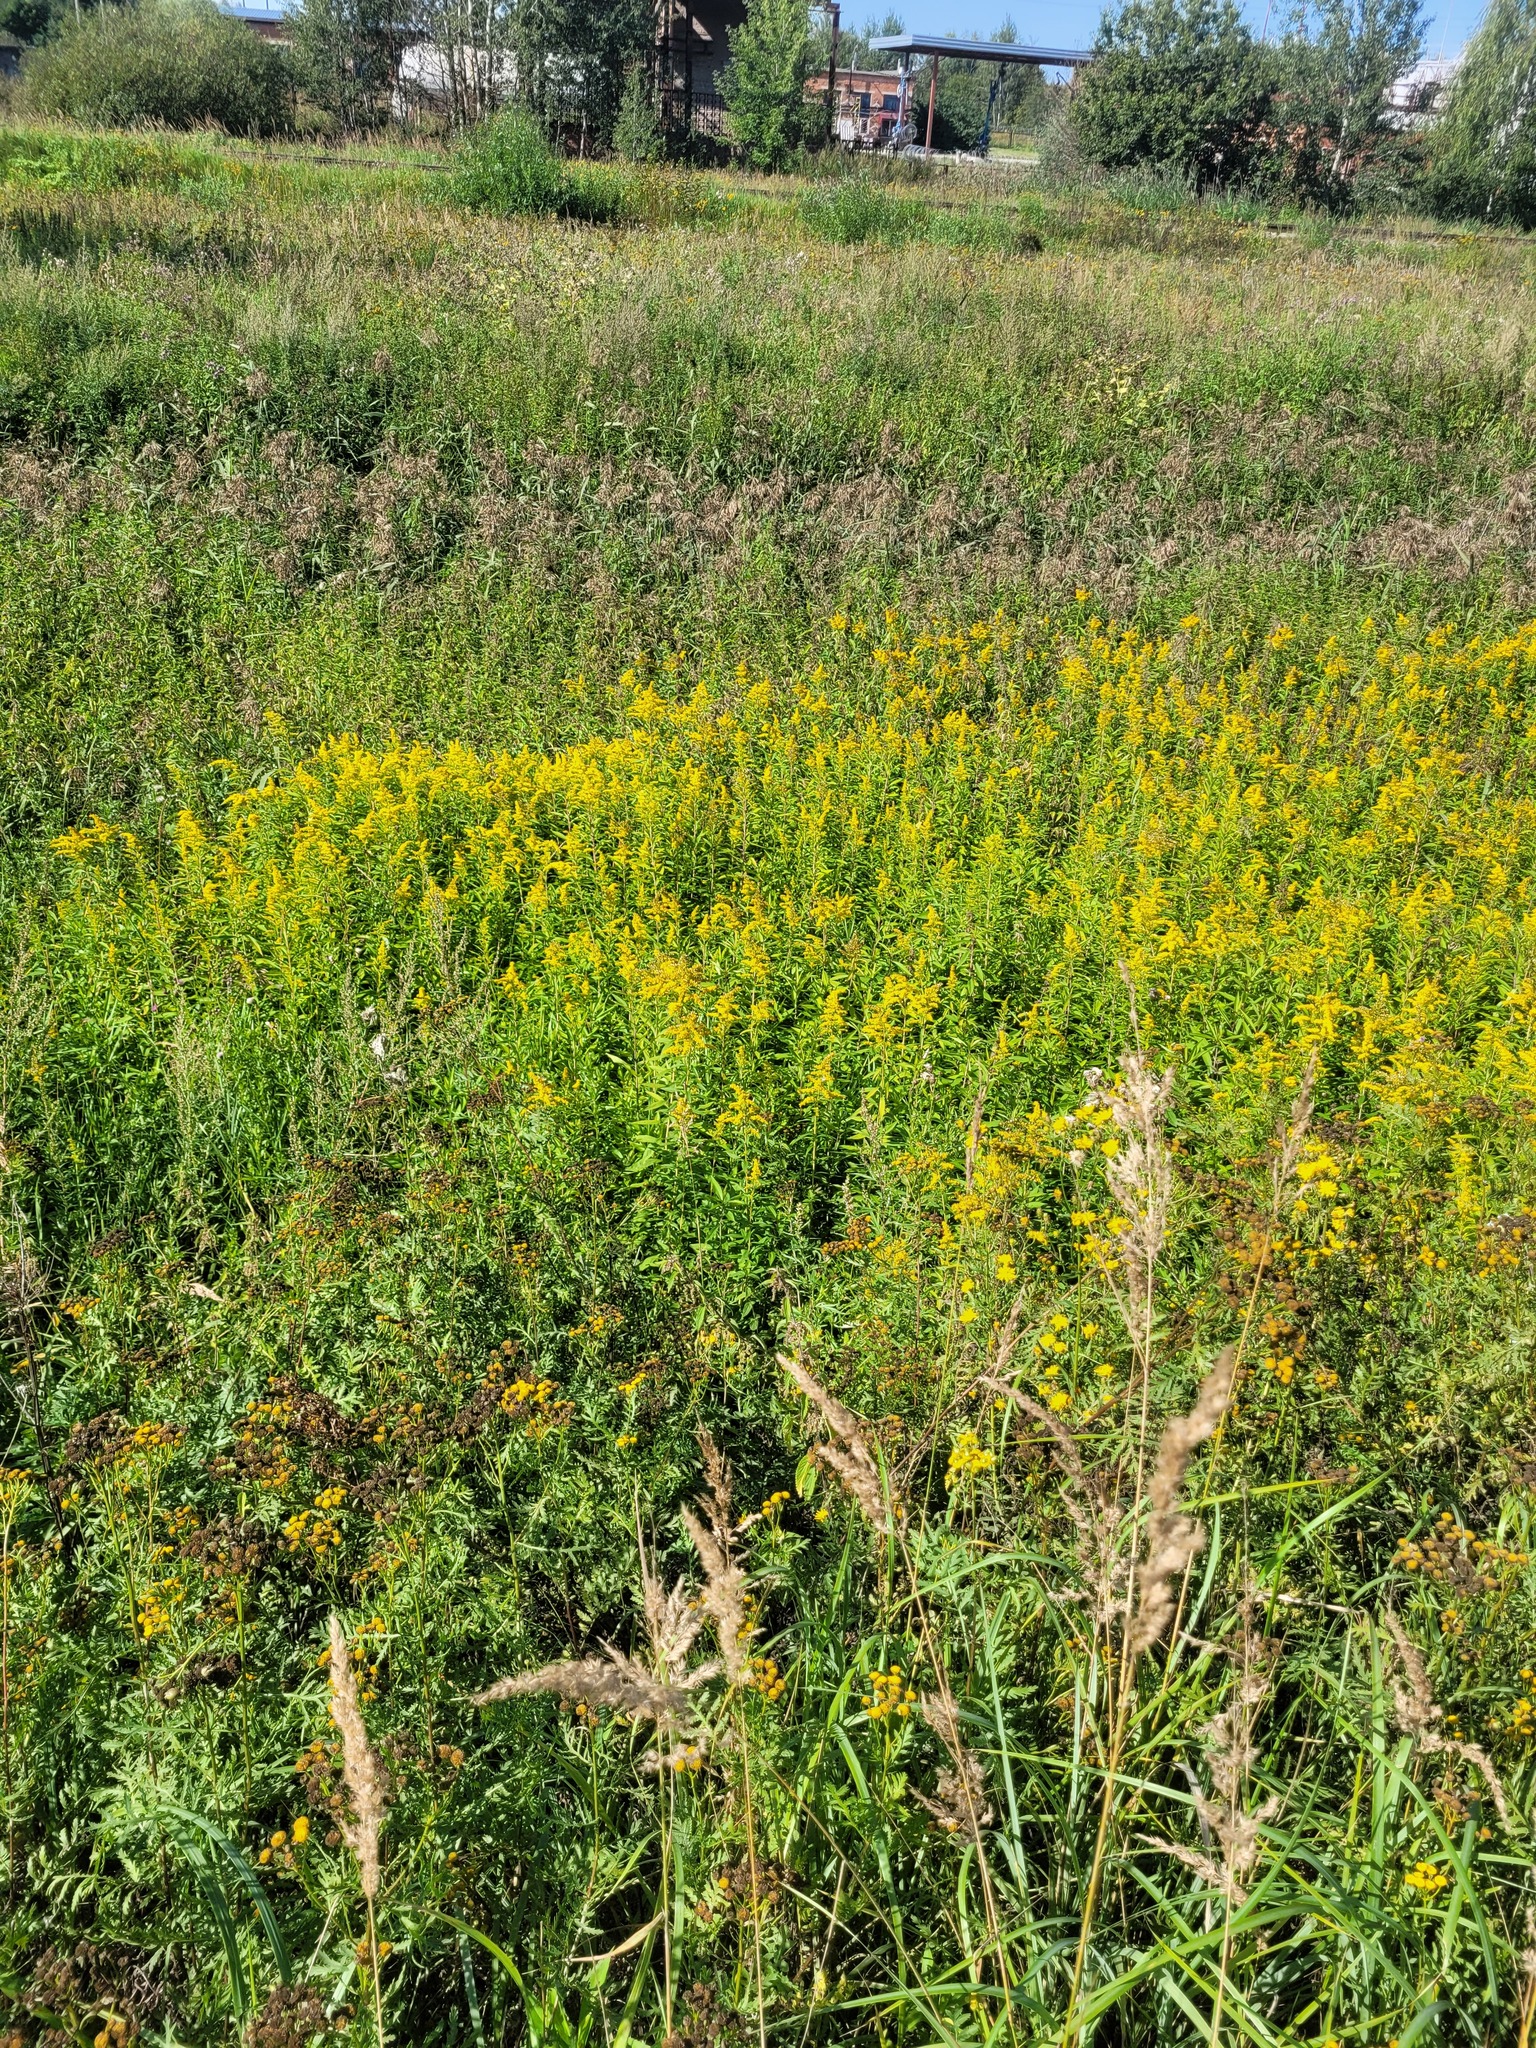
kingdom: Plantae
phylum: Tracheophyta
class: Magnoliopsida
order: Asterales
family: Asteraceae
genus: Solidago
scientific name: Solidago gigantea
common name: Giant goldenrod
